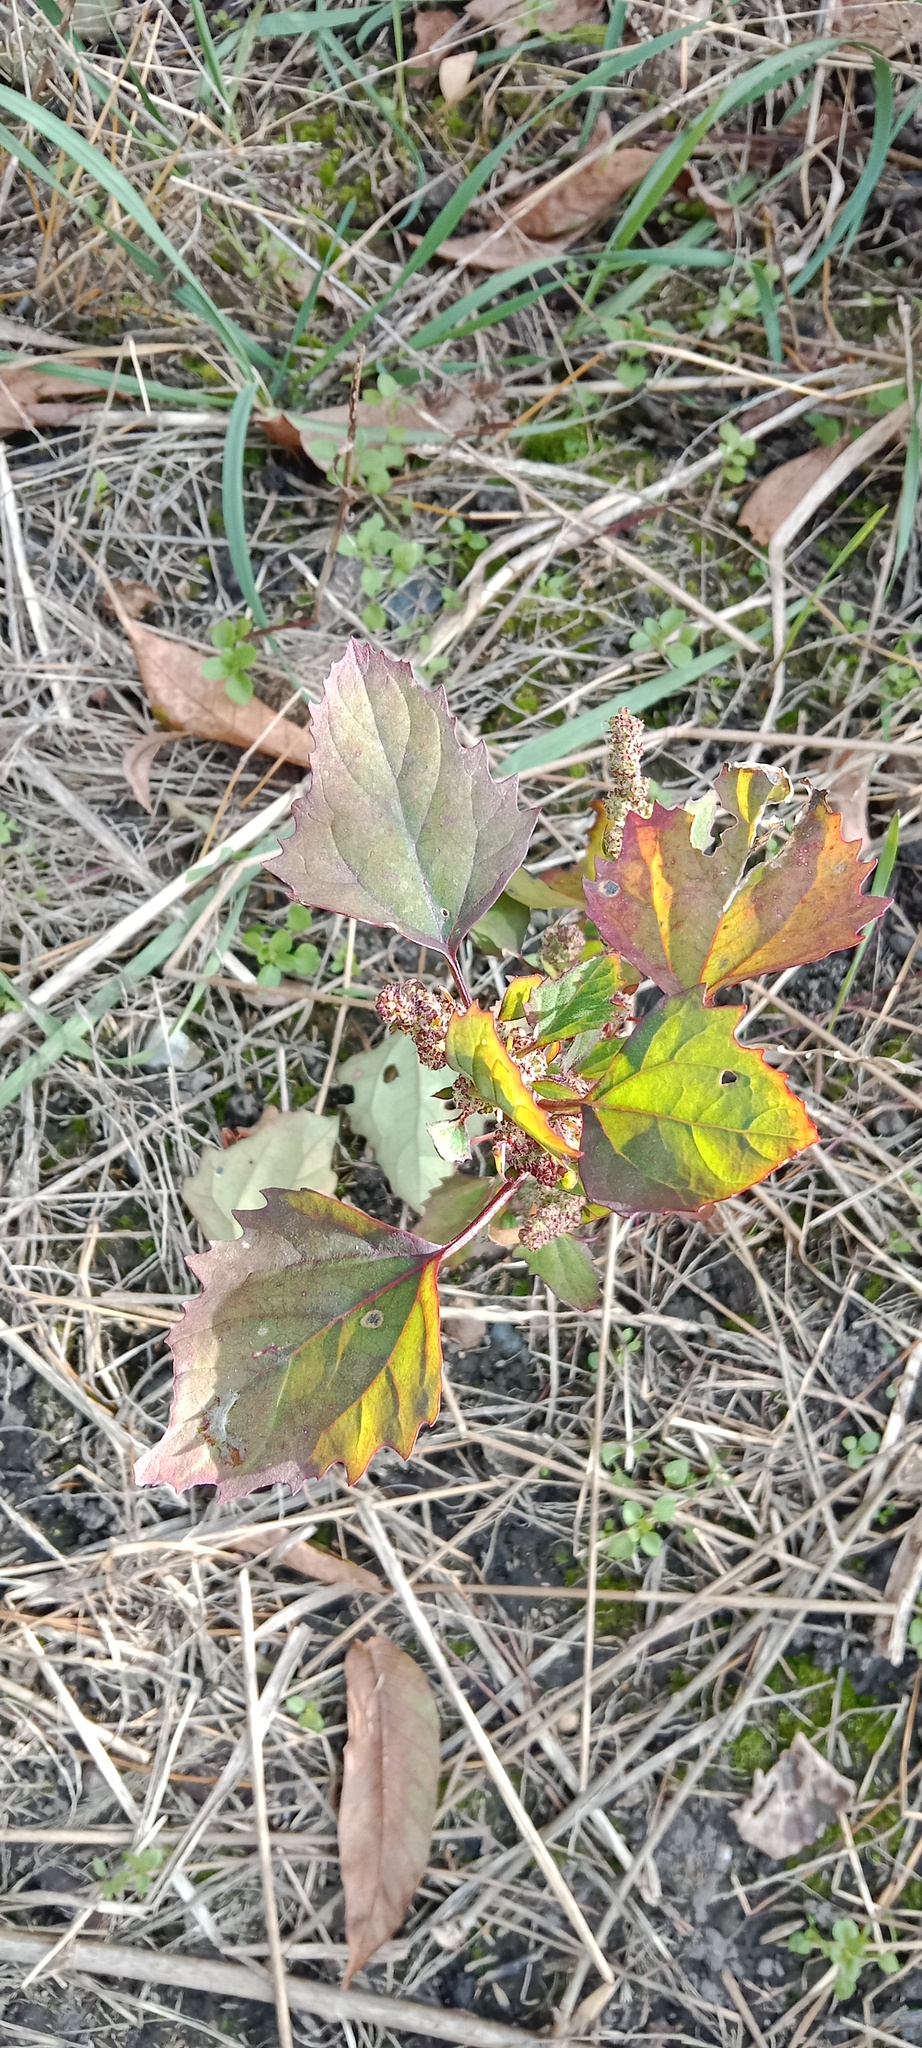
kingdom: Plantae
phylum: Tracheophyta
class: Magnoliopsida
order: Vitales
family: Vitaceae
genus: Vitis
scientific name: Vitis vinifera
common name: Grape-vine
